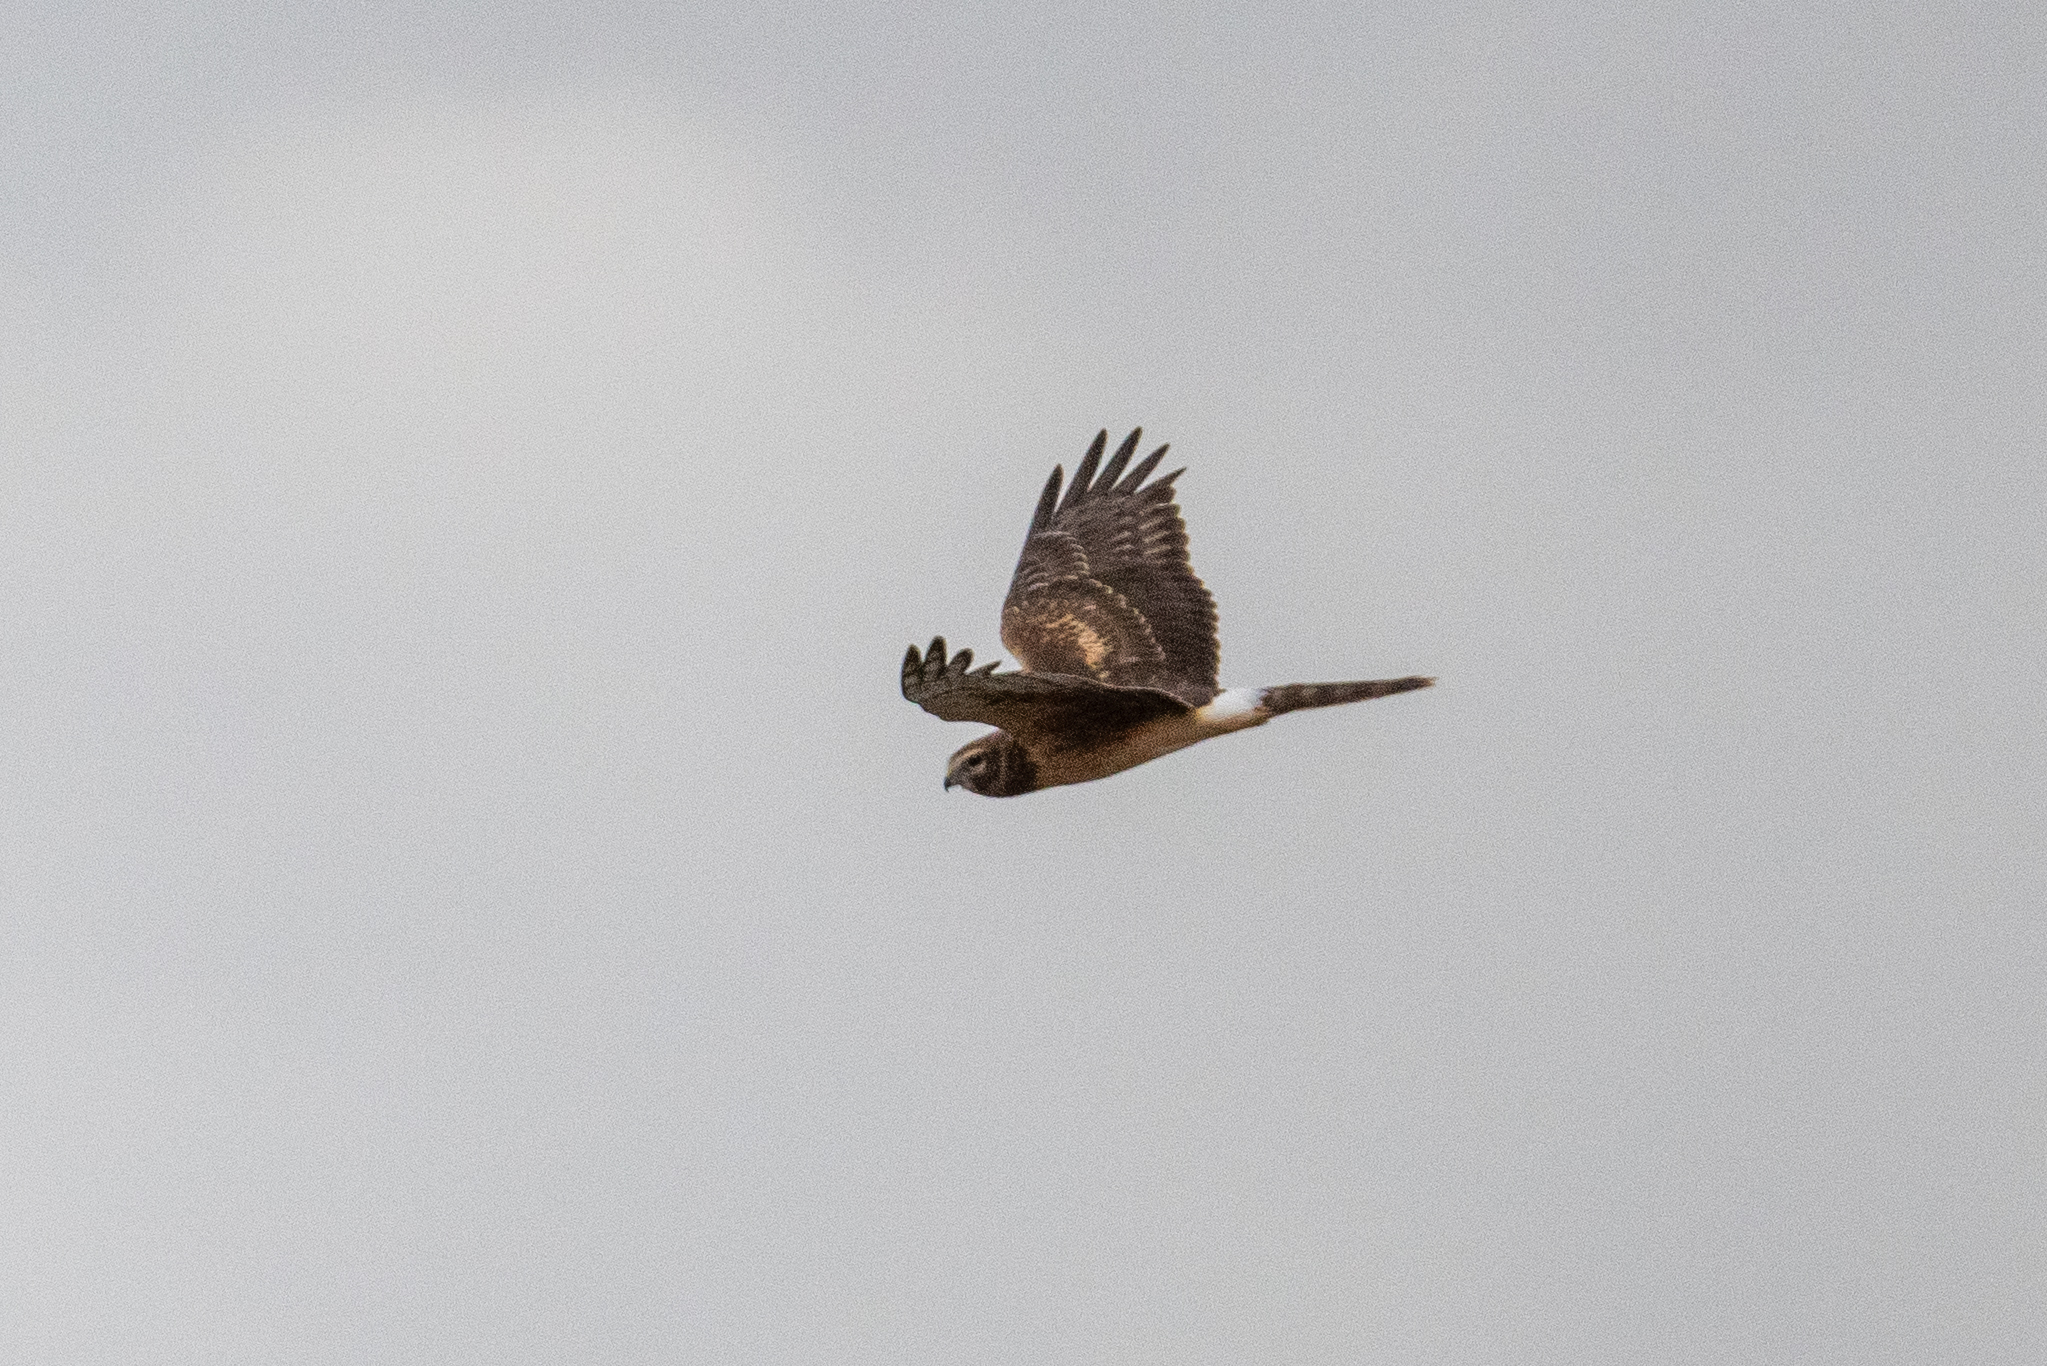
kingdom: Animalia
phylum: Chordata
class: Aves
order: Accipitriformes
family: Accipitridae
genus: Circus
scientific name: Circus cyaneus
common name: Hen harrier
